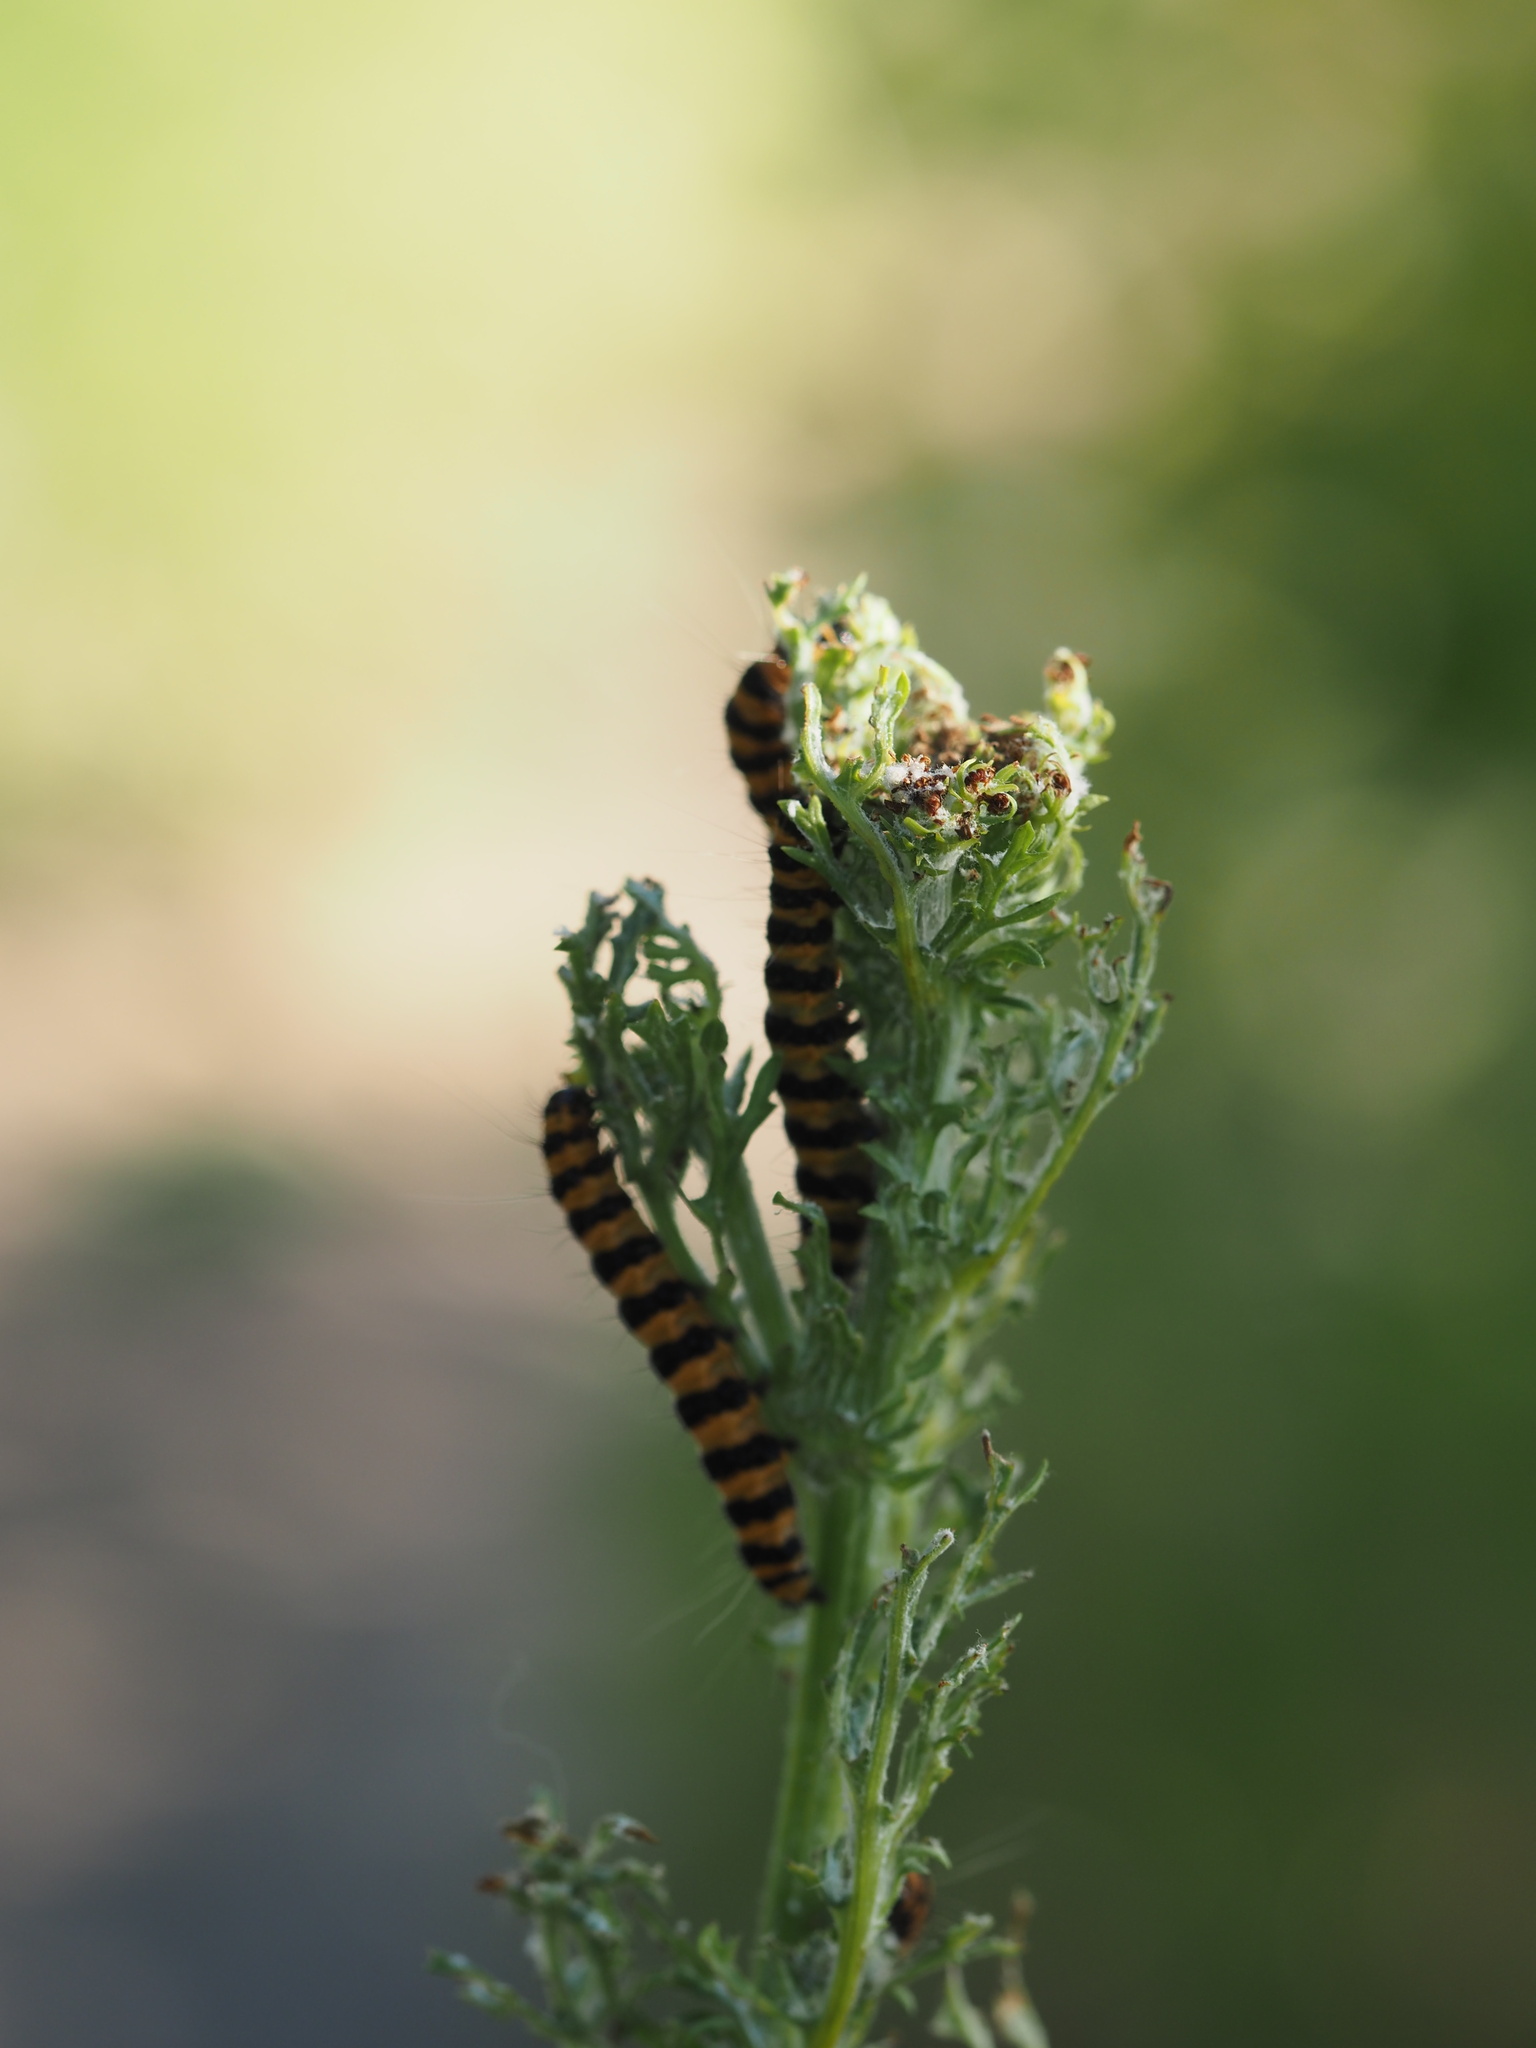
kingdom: Animalia
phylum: Arthropoda
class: Insecta
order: Lepidoptera
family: Erebidae
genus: Tyria
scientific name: Tyria jacobaeae
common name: Cinnabar
